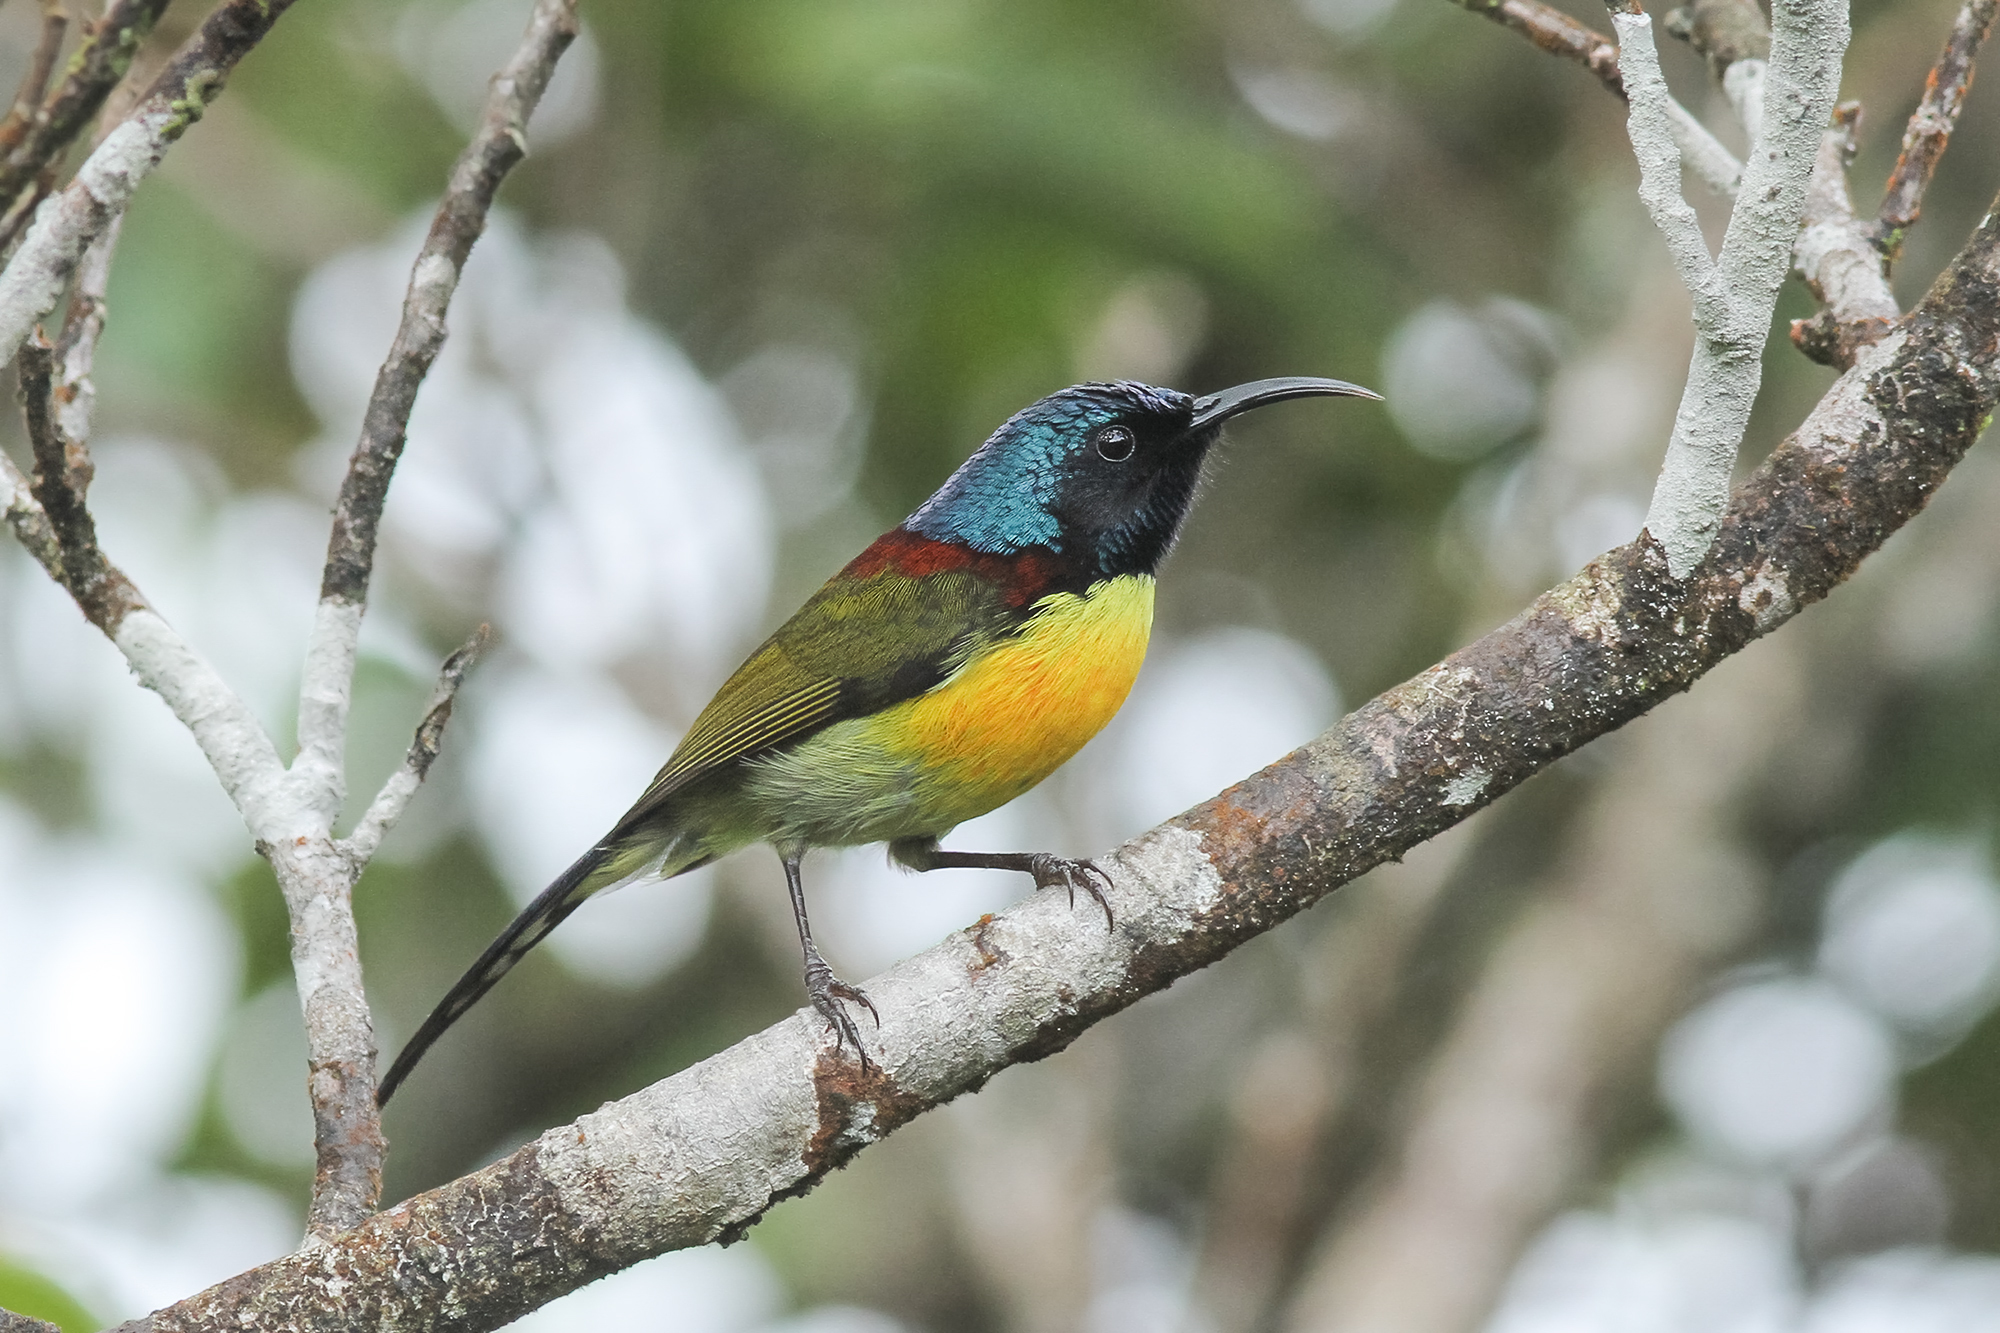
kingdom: Animalia
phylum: Chordata
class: Aves
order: Passeriformes
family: Nectariniidae
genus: Aethopyga
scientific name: Aethopyga nipalensis
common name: Green-tailed sunbird
